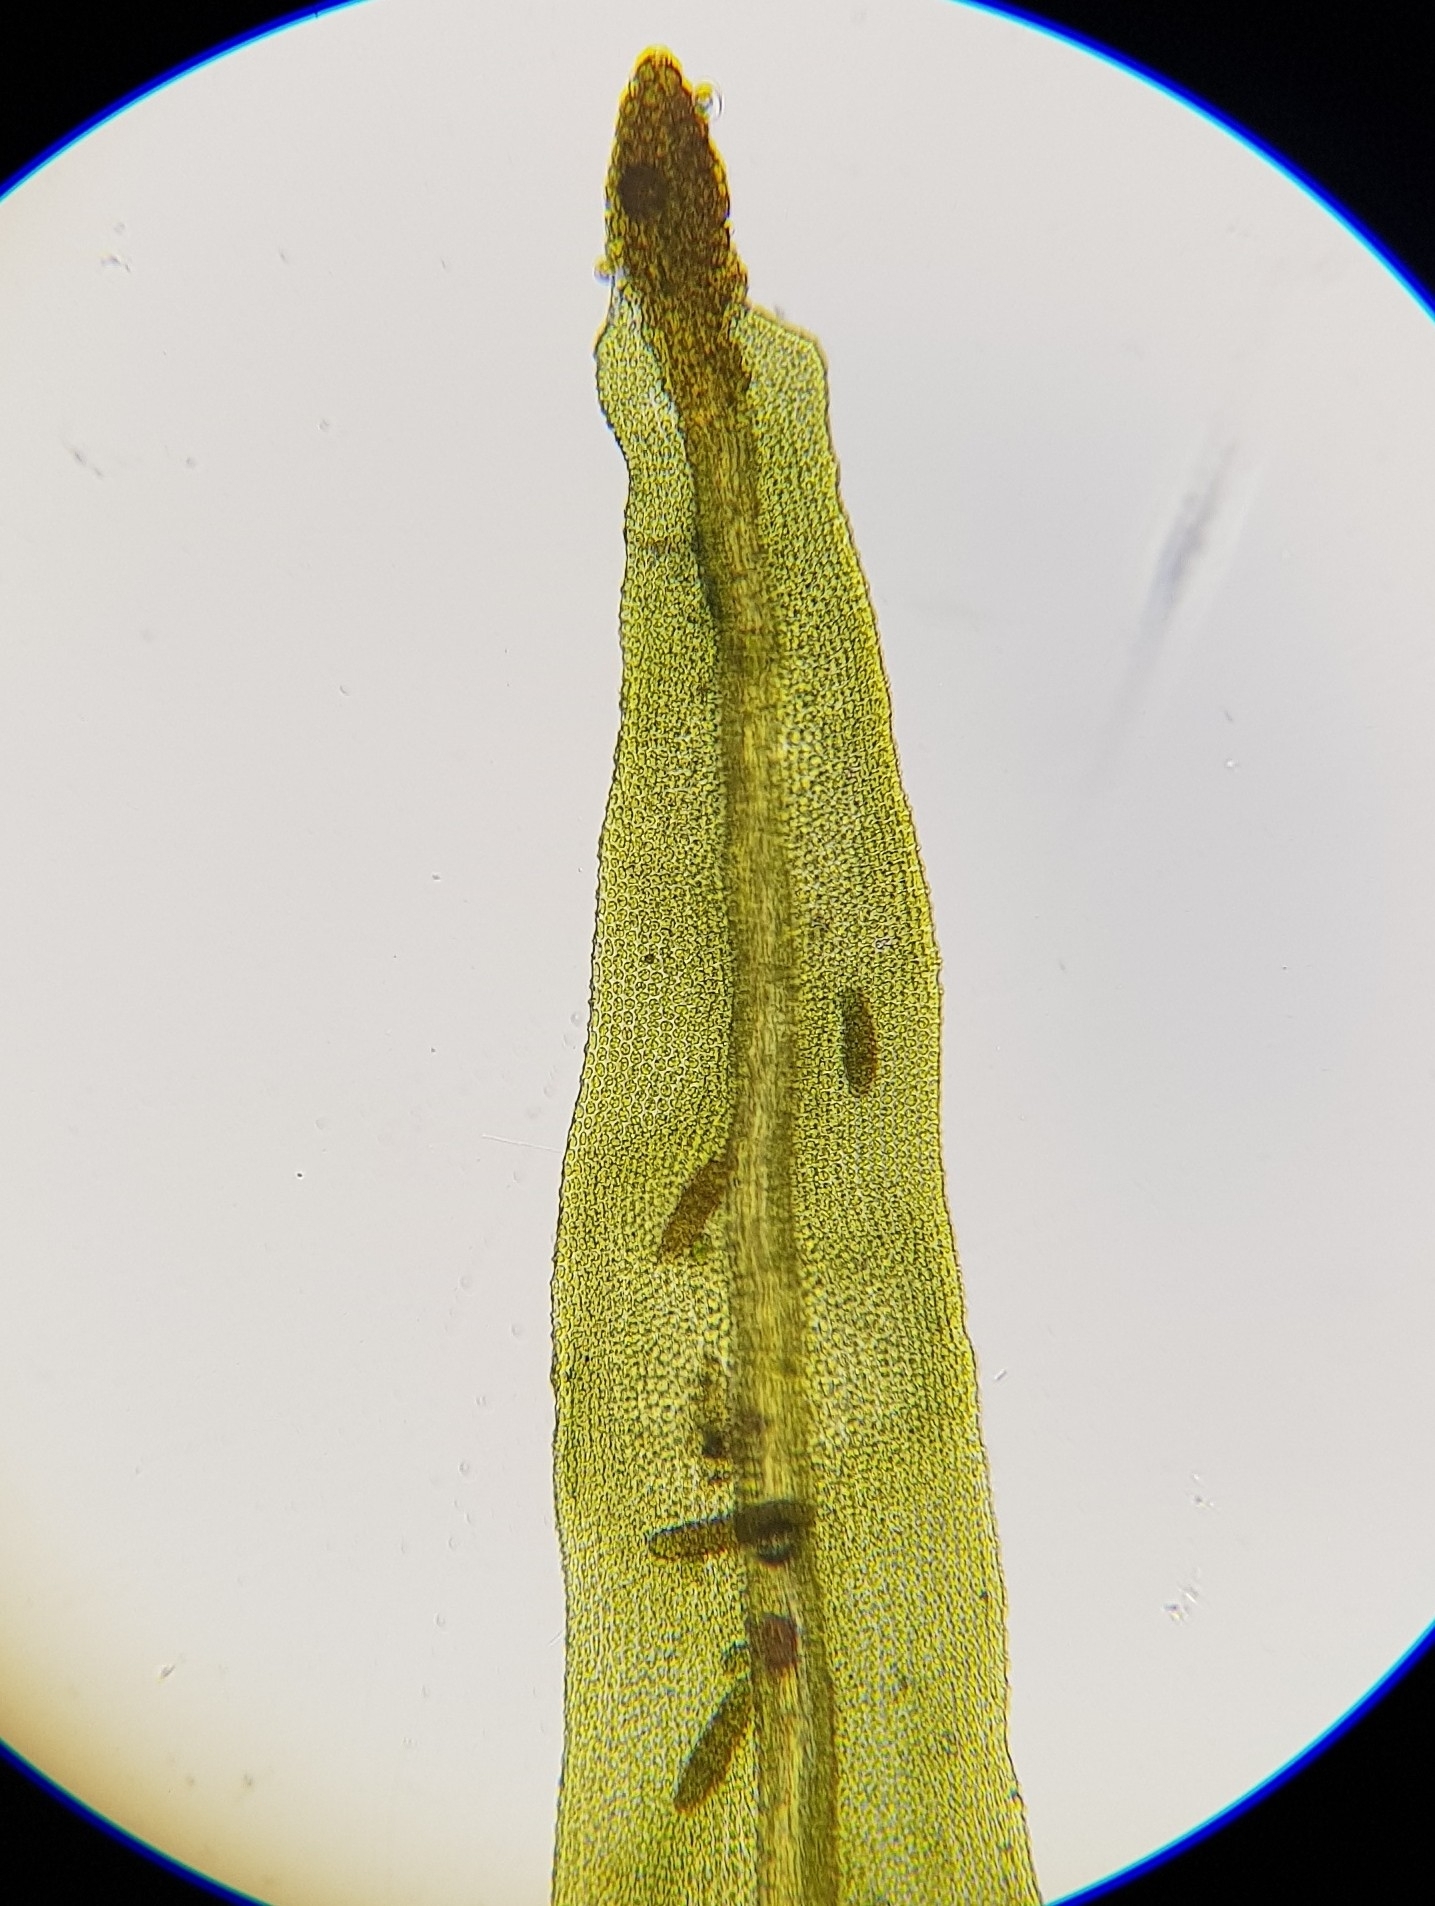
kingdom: Plantae
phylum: Bryophyta
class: Bryopsida
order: Orthotrichales
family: Orthotrichaceae
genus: Plenogemma
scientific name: Plenogemma phyllantha
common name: Frizzled pincushion
